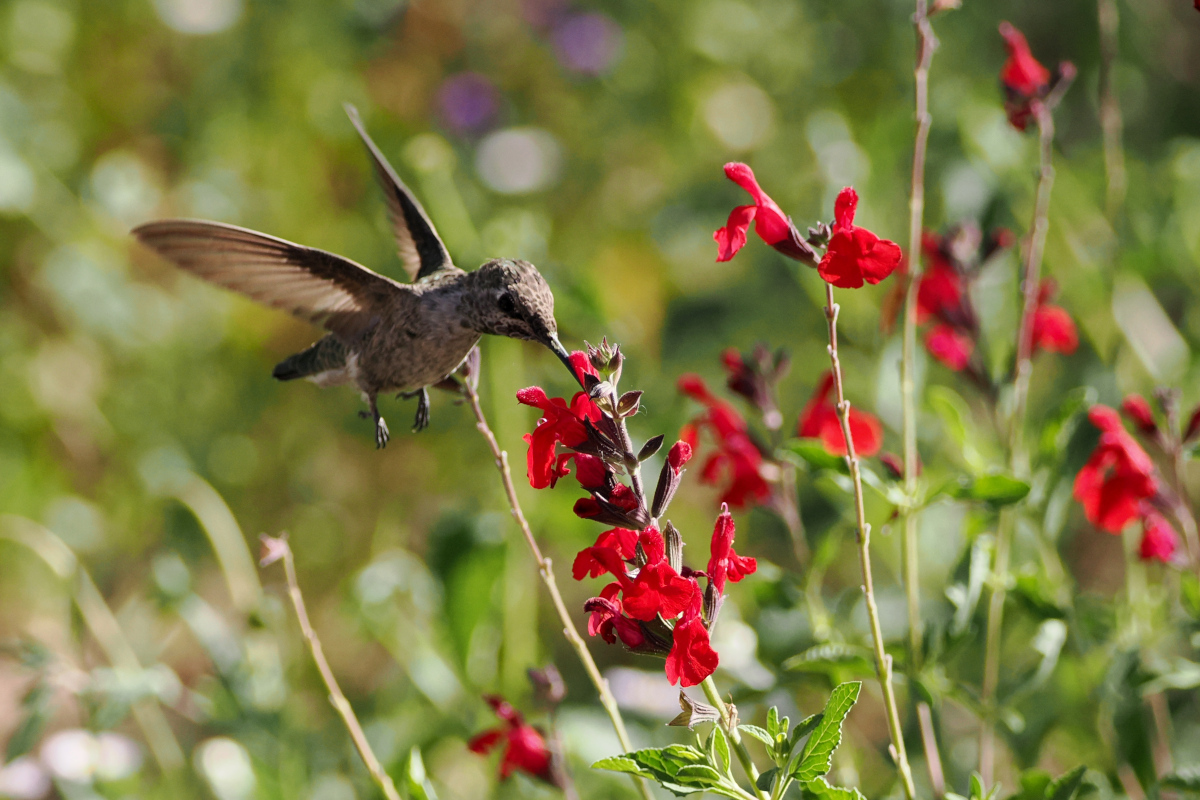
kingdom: Animalia
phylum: Chordata
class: Aves
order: Apodiformes
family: Trochilidae
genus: Calypte
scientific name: Calypte anna
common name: Anna's hummingbird
